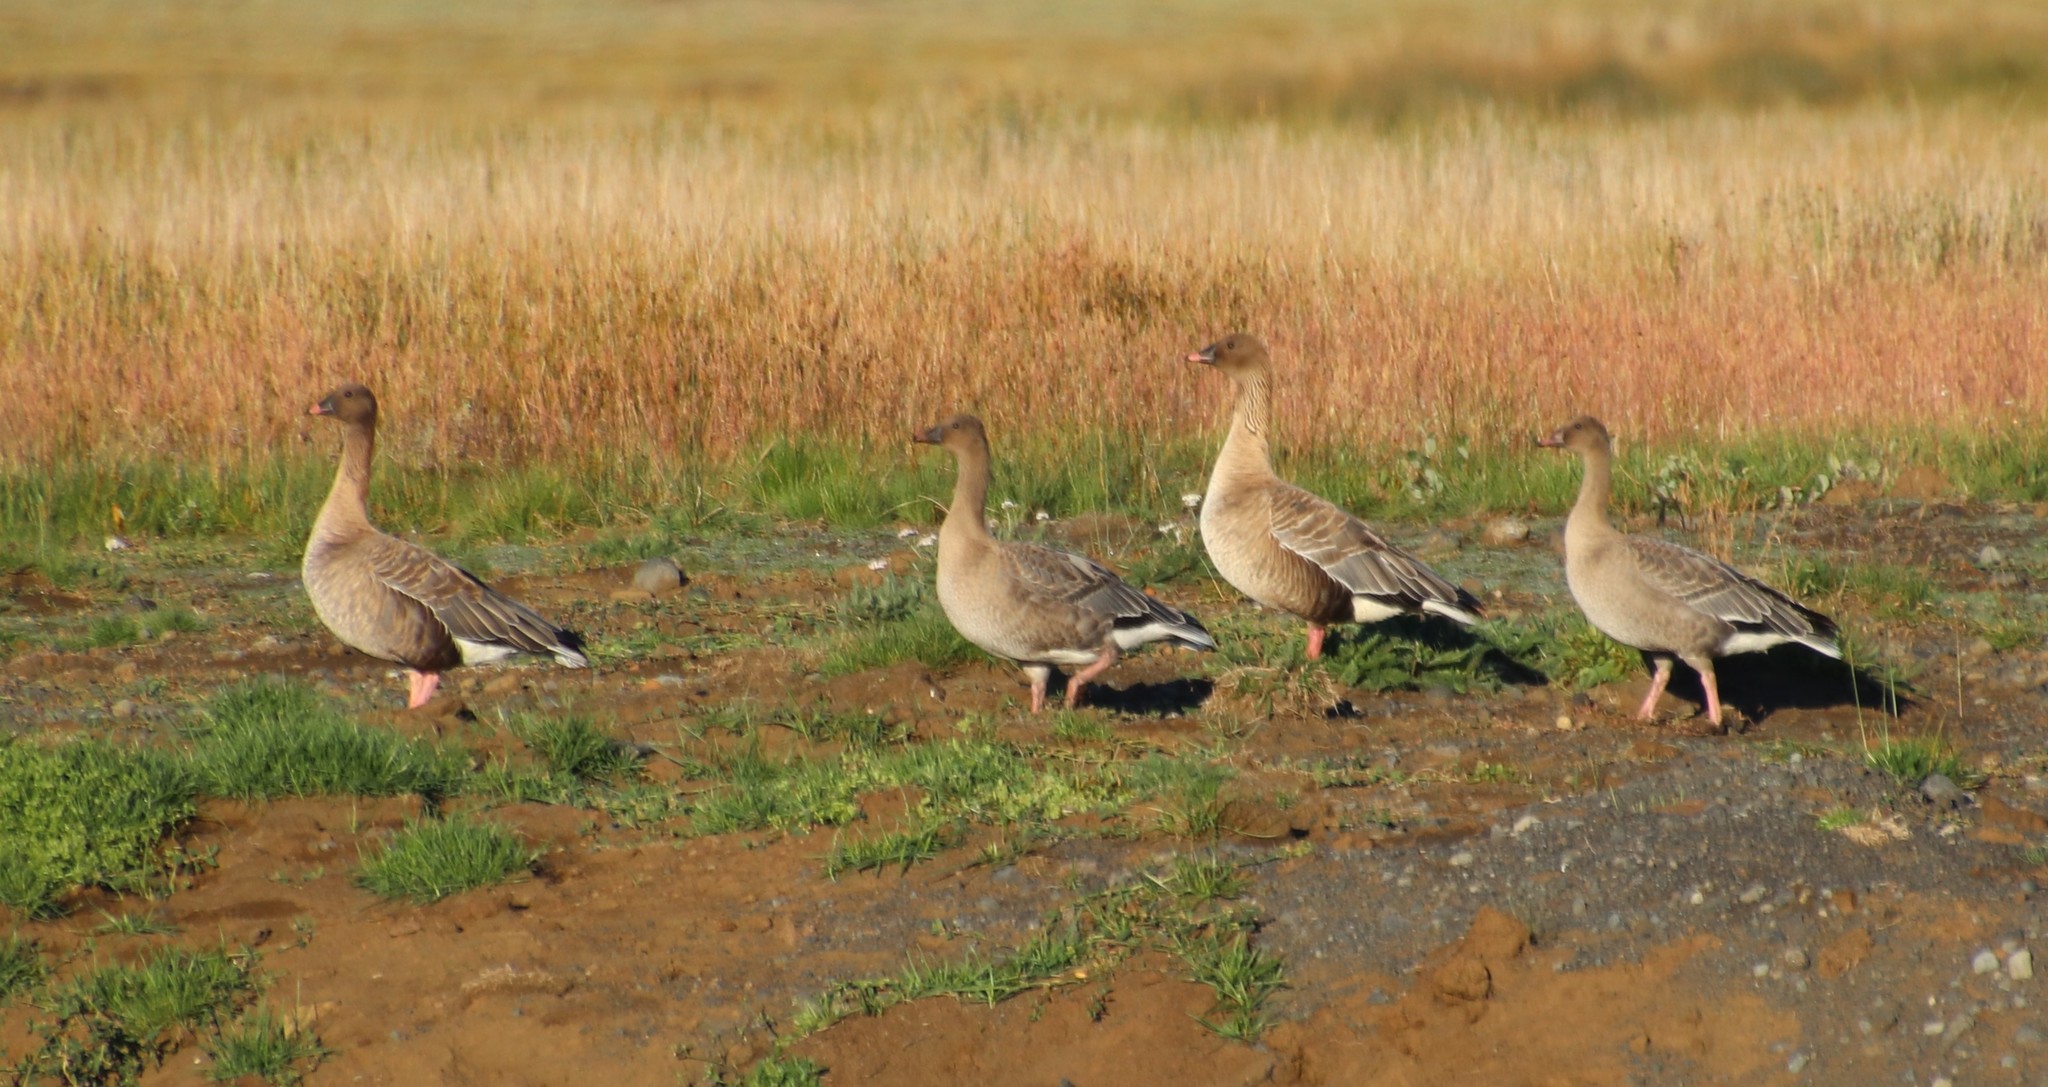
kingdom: Animalia
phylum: Chordata
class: Aves
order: Anseriformes
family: Anatidae
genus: Anser
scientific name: Anser brachyrhynchus
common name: Pink-footed goose
